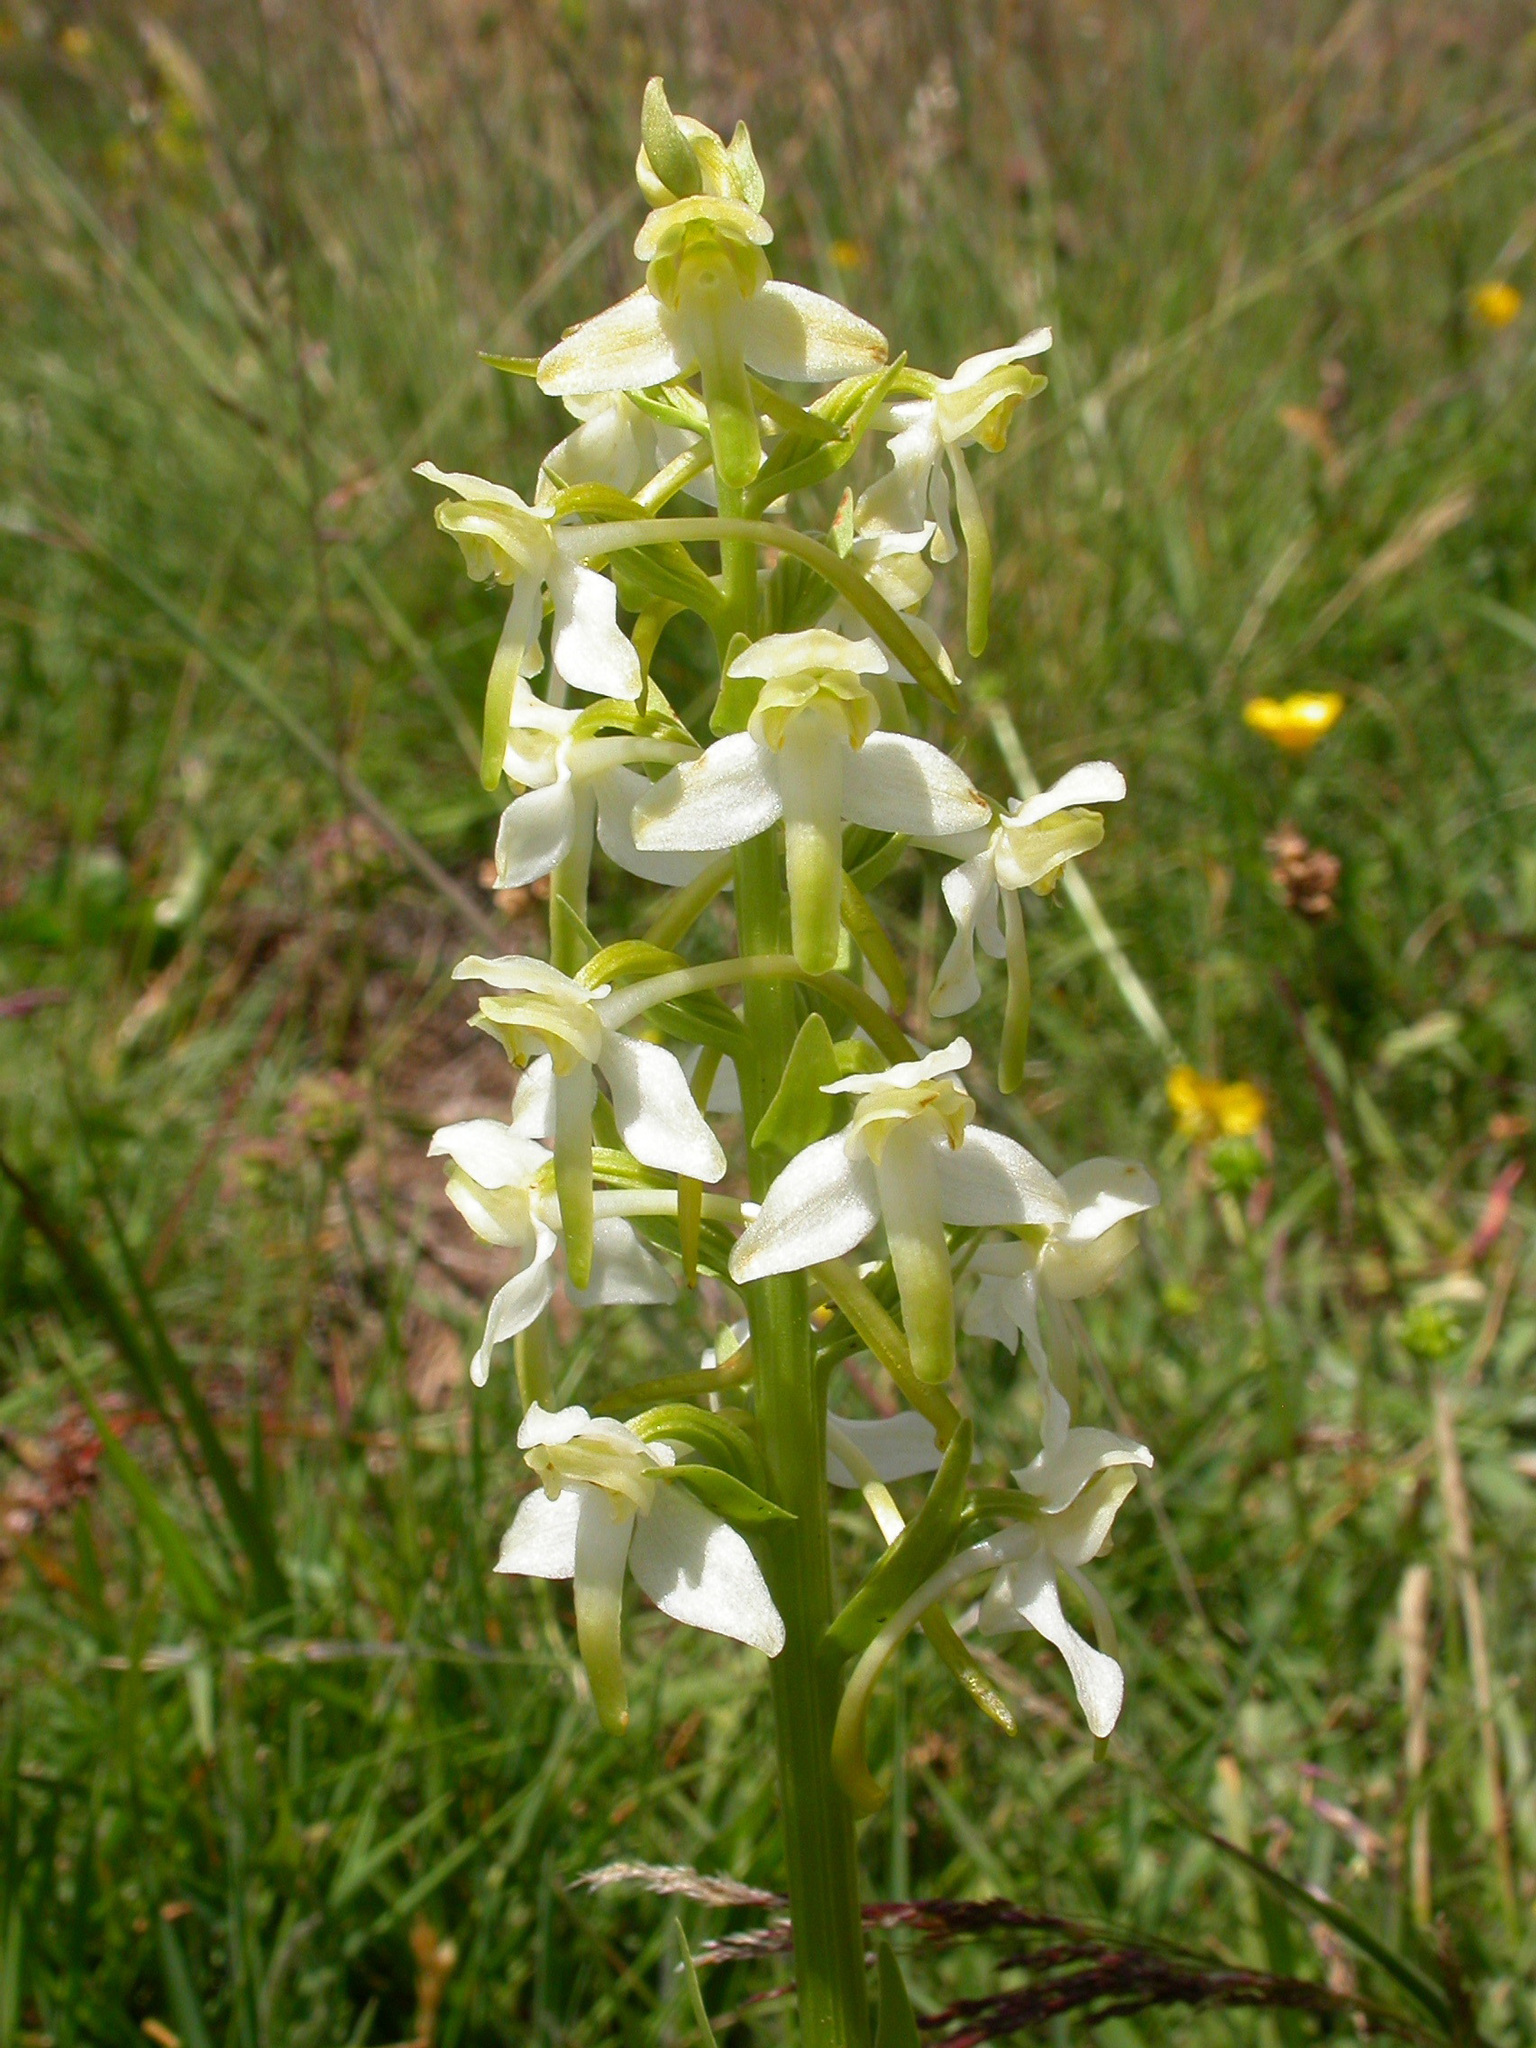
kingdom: Plantae
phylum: Tracheophyta
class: Liliopsida
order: Asparagales
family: Orchidaceae
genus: Platanthera
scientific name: Platanthera chlorantha
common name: Greater butterfly-orchid
